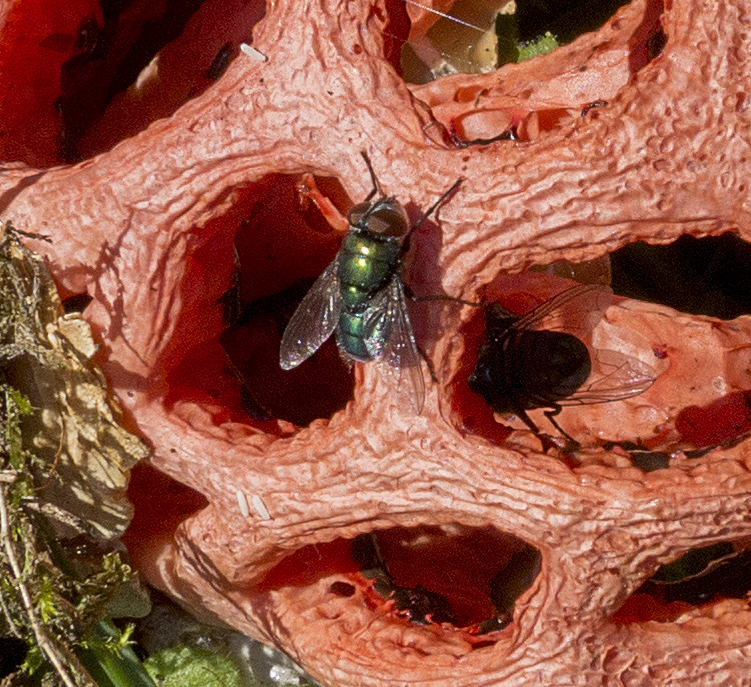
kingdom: Animalia
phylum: Arthropoda
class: Insecta
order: Diptera
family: Calliphoridae
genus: Chrysomya
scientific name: Chrysomya albiceps
